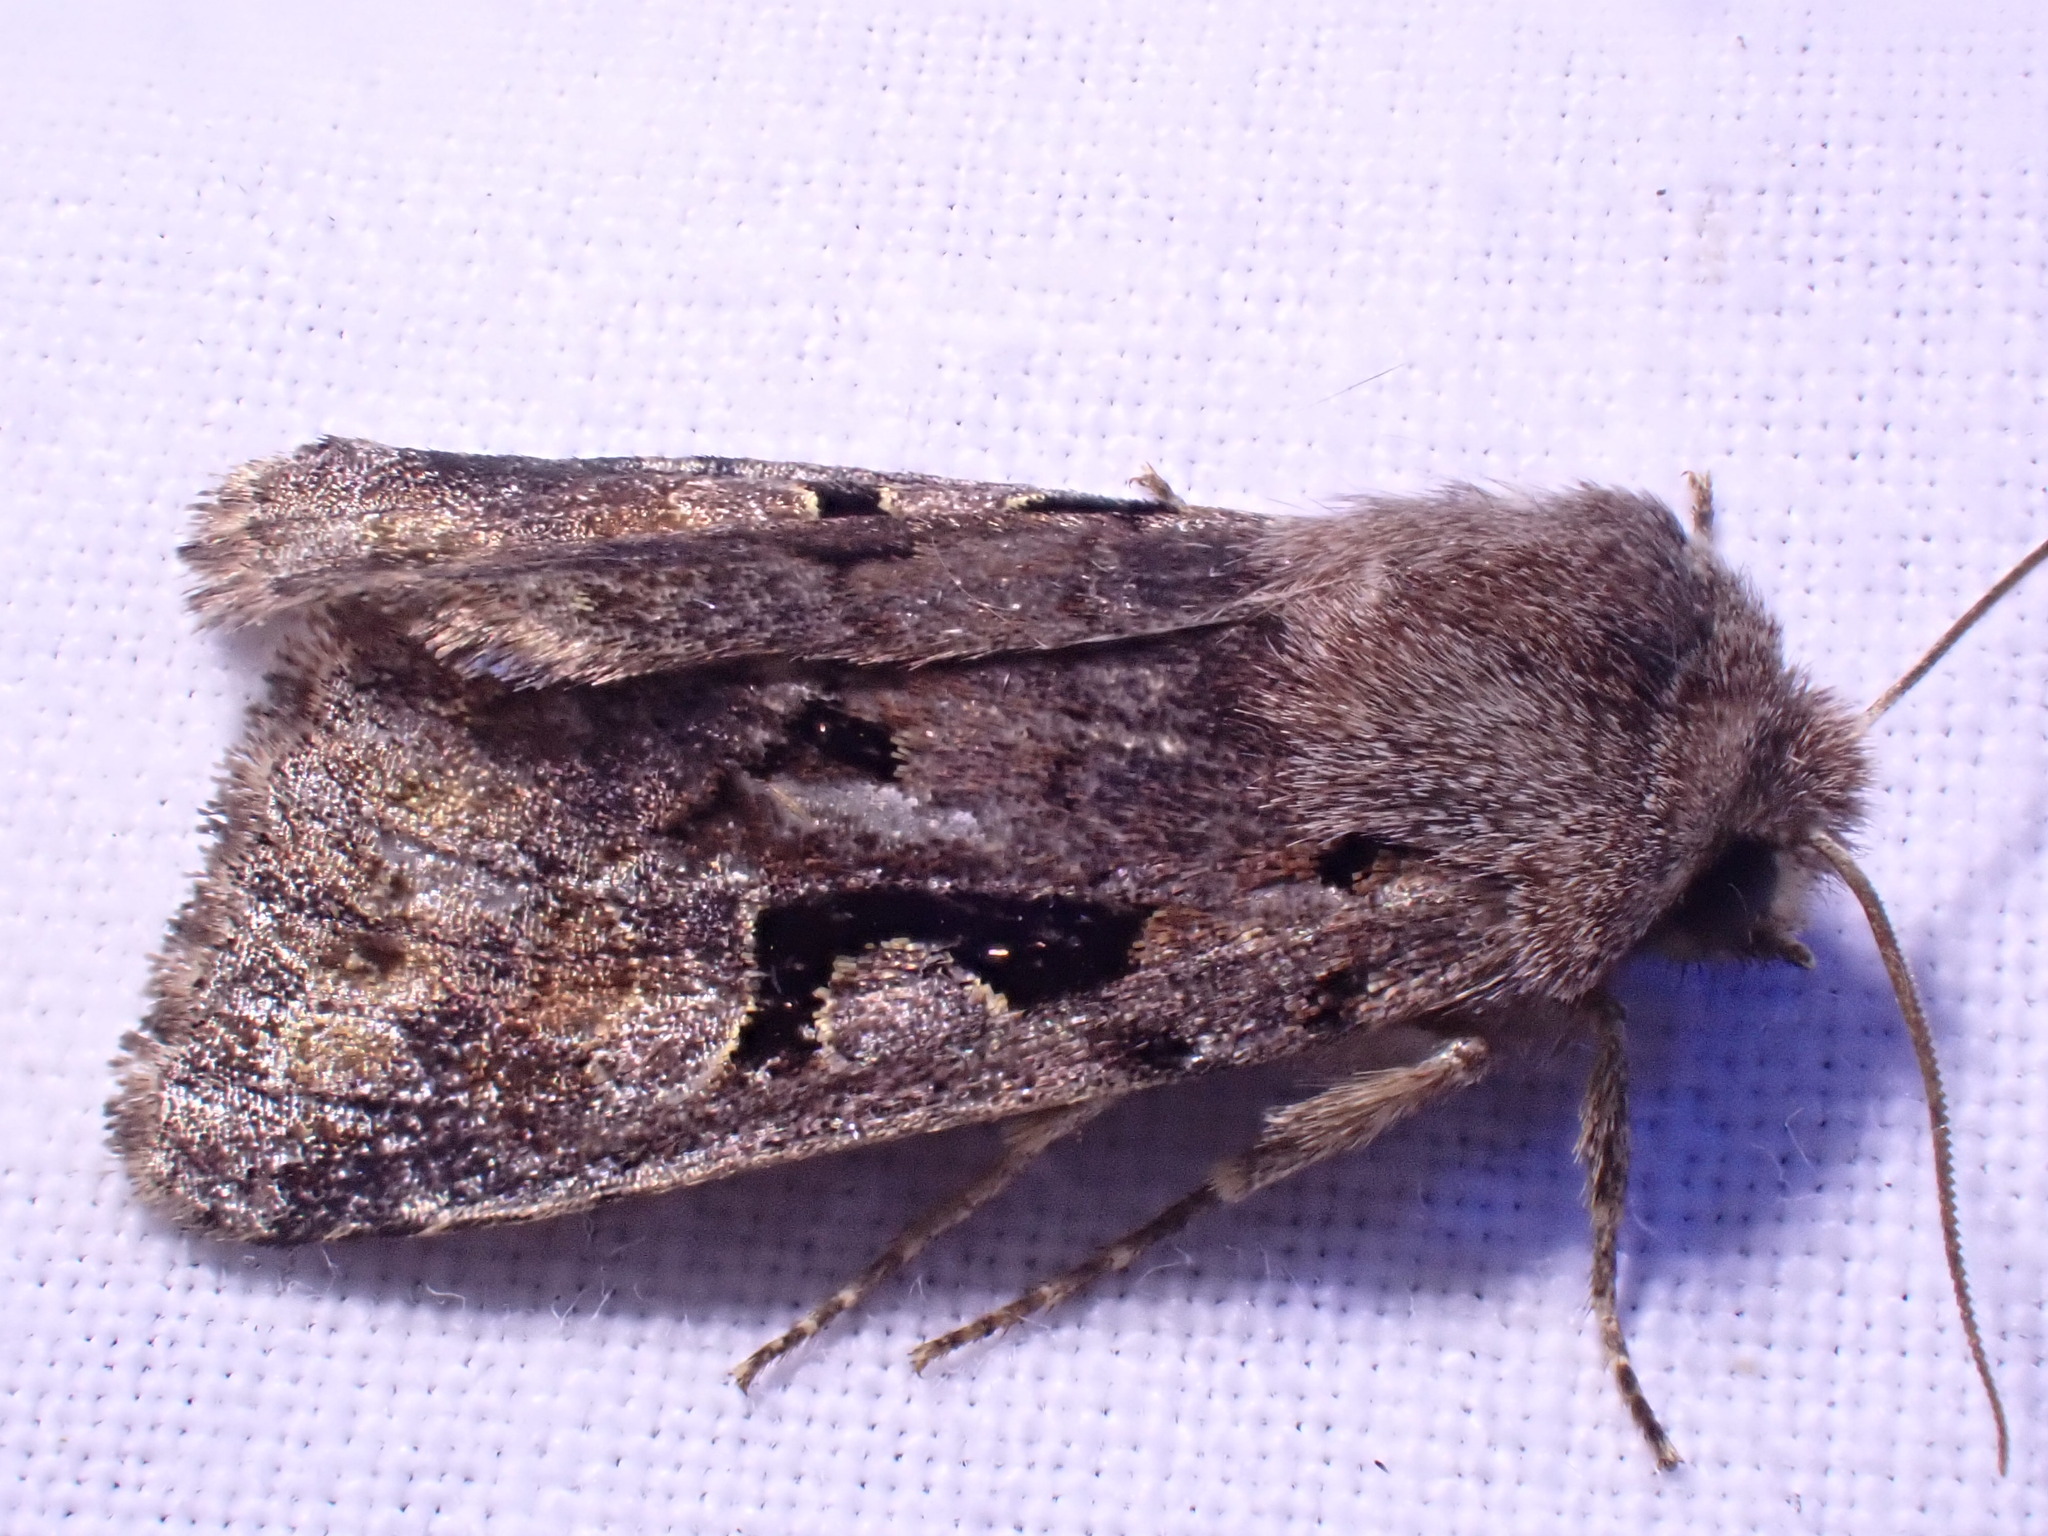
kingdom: Animalia
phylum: Arthropoda
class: Insecta
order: Lepidoptera
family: Noctuidae
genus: Orthosia
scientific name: Orthosia gothica
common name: Hebrew character
